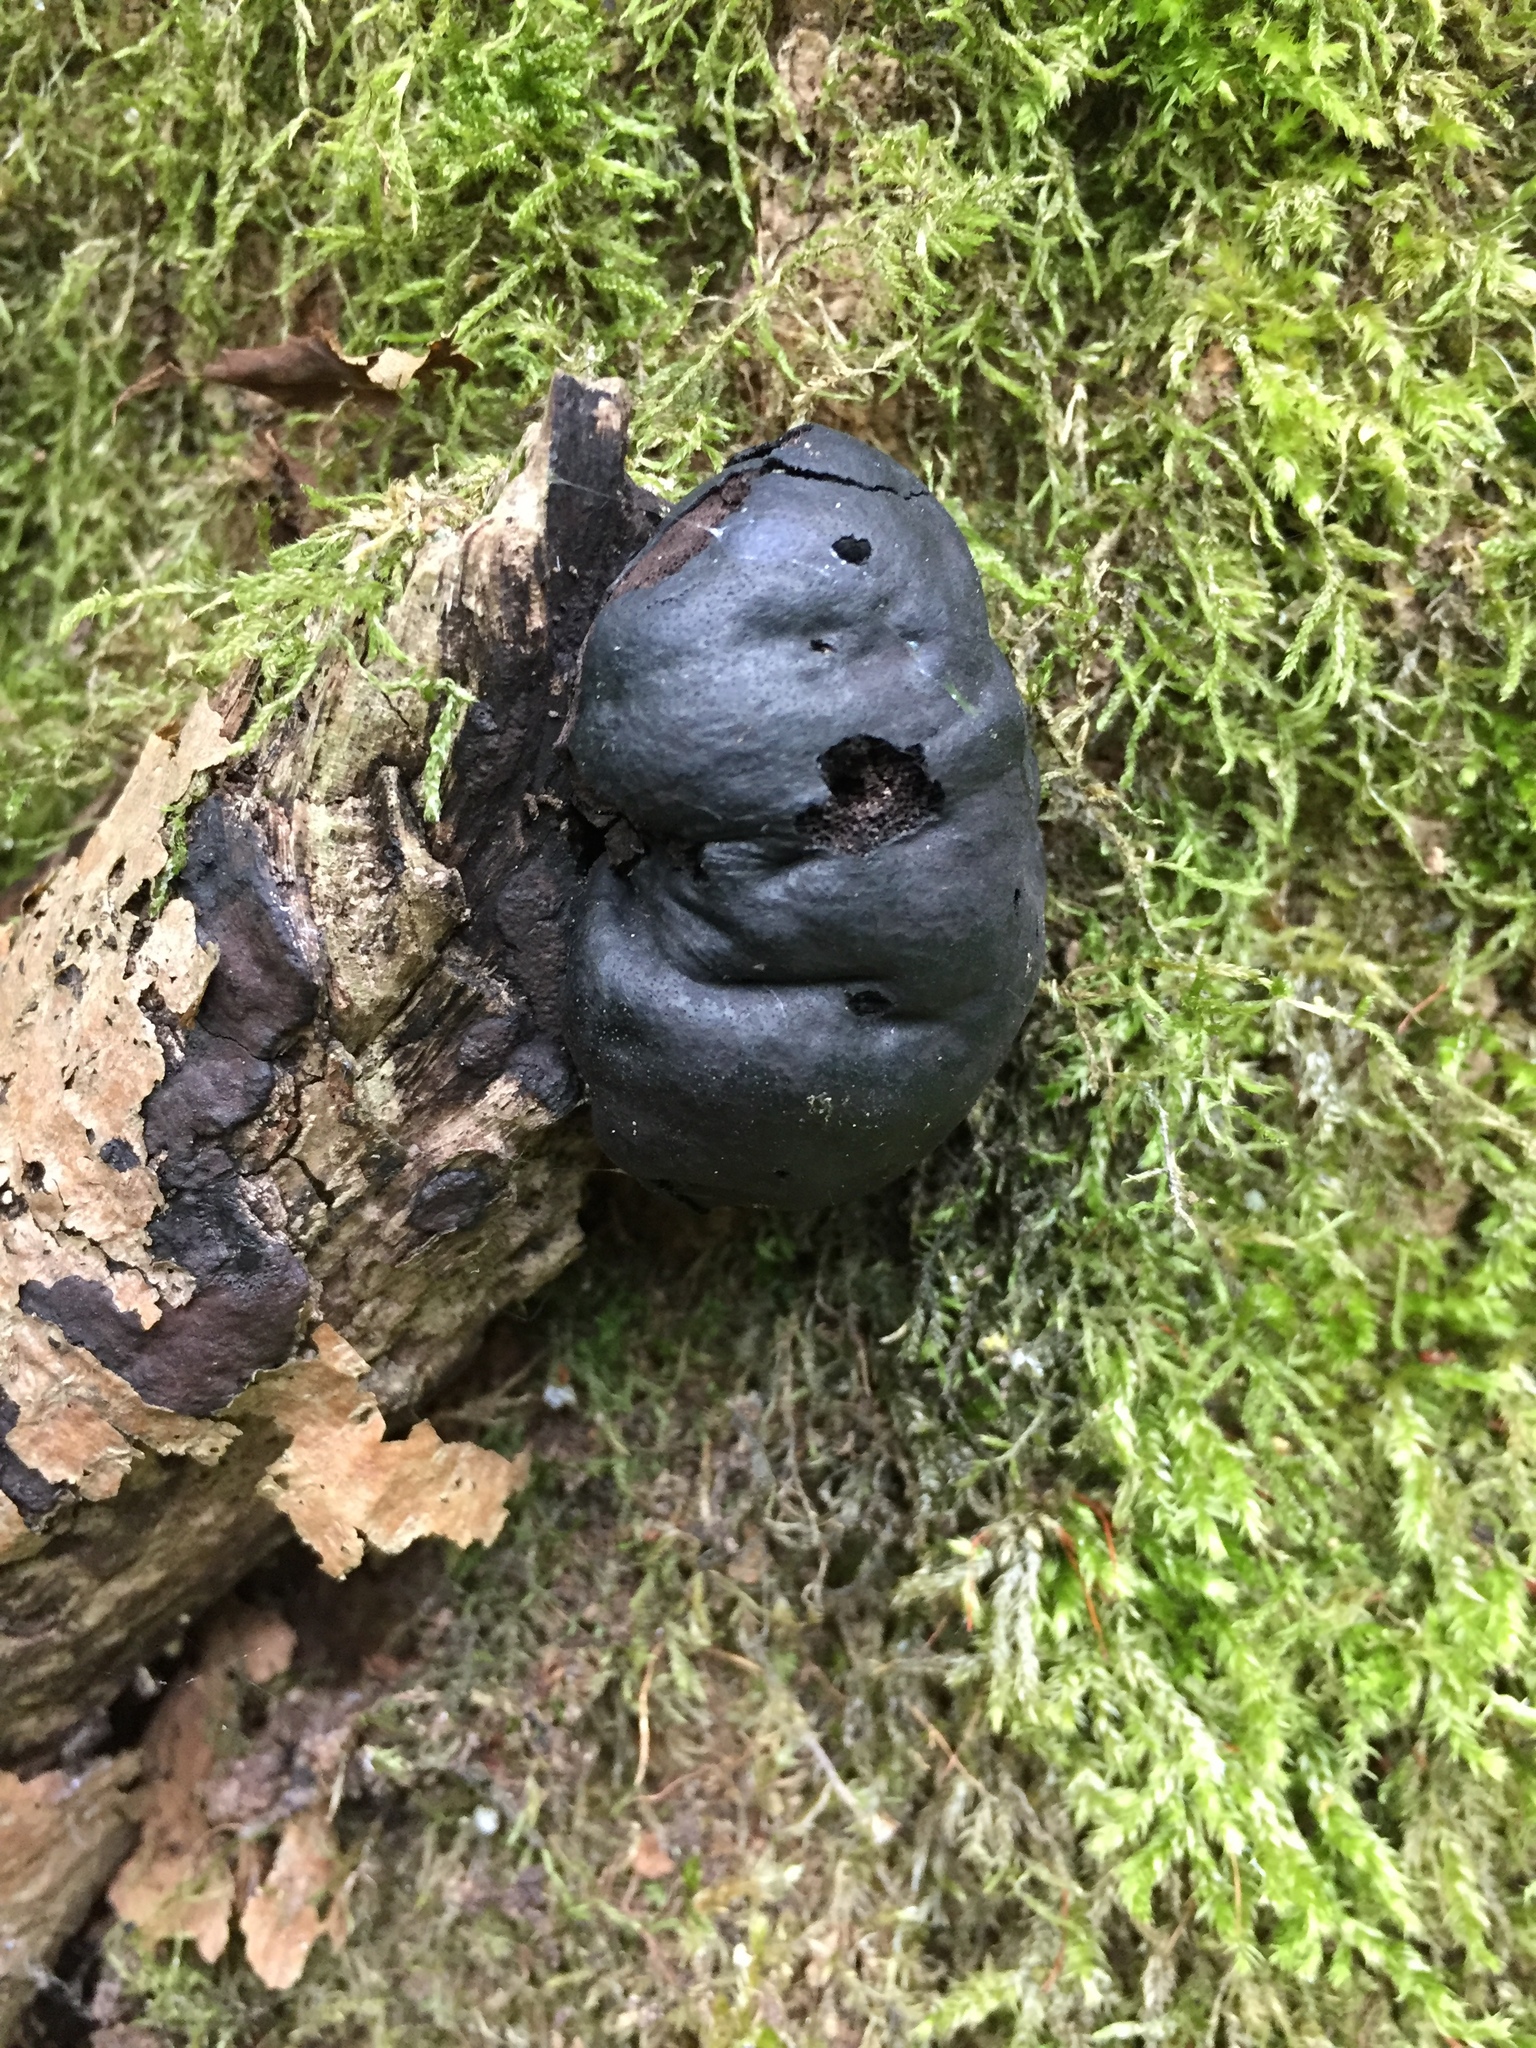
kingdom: Fungi
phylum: Ascomycota
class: Sordariomycetes
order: Xylariales
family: Hypoxylaceae
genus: Daldinia
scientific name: Daldinia concentrica
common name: Cramp balls
